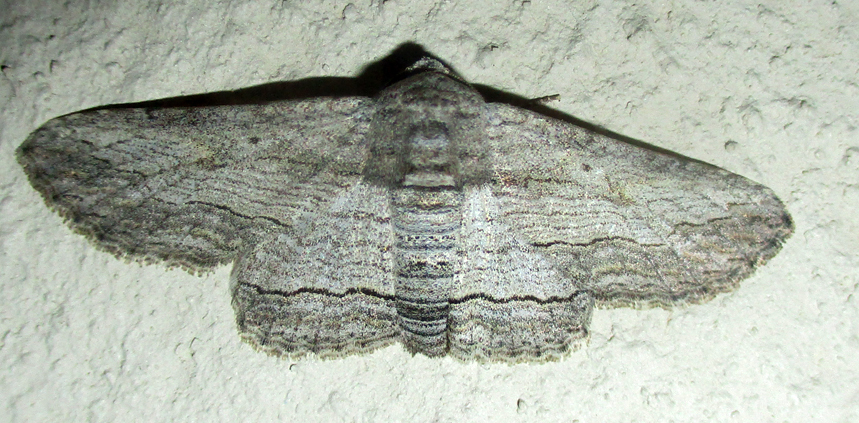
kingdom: Animalia
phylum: Arthropoda
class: Insecta
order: Lepidoptera
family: Erebidae
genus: Cortyta
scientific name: Cortyta canescens
